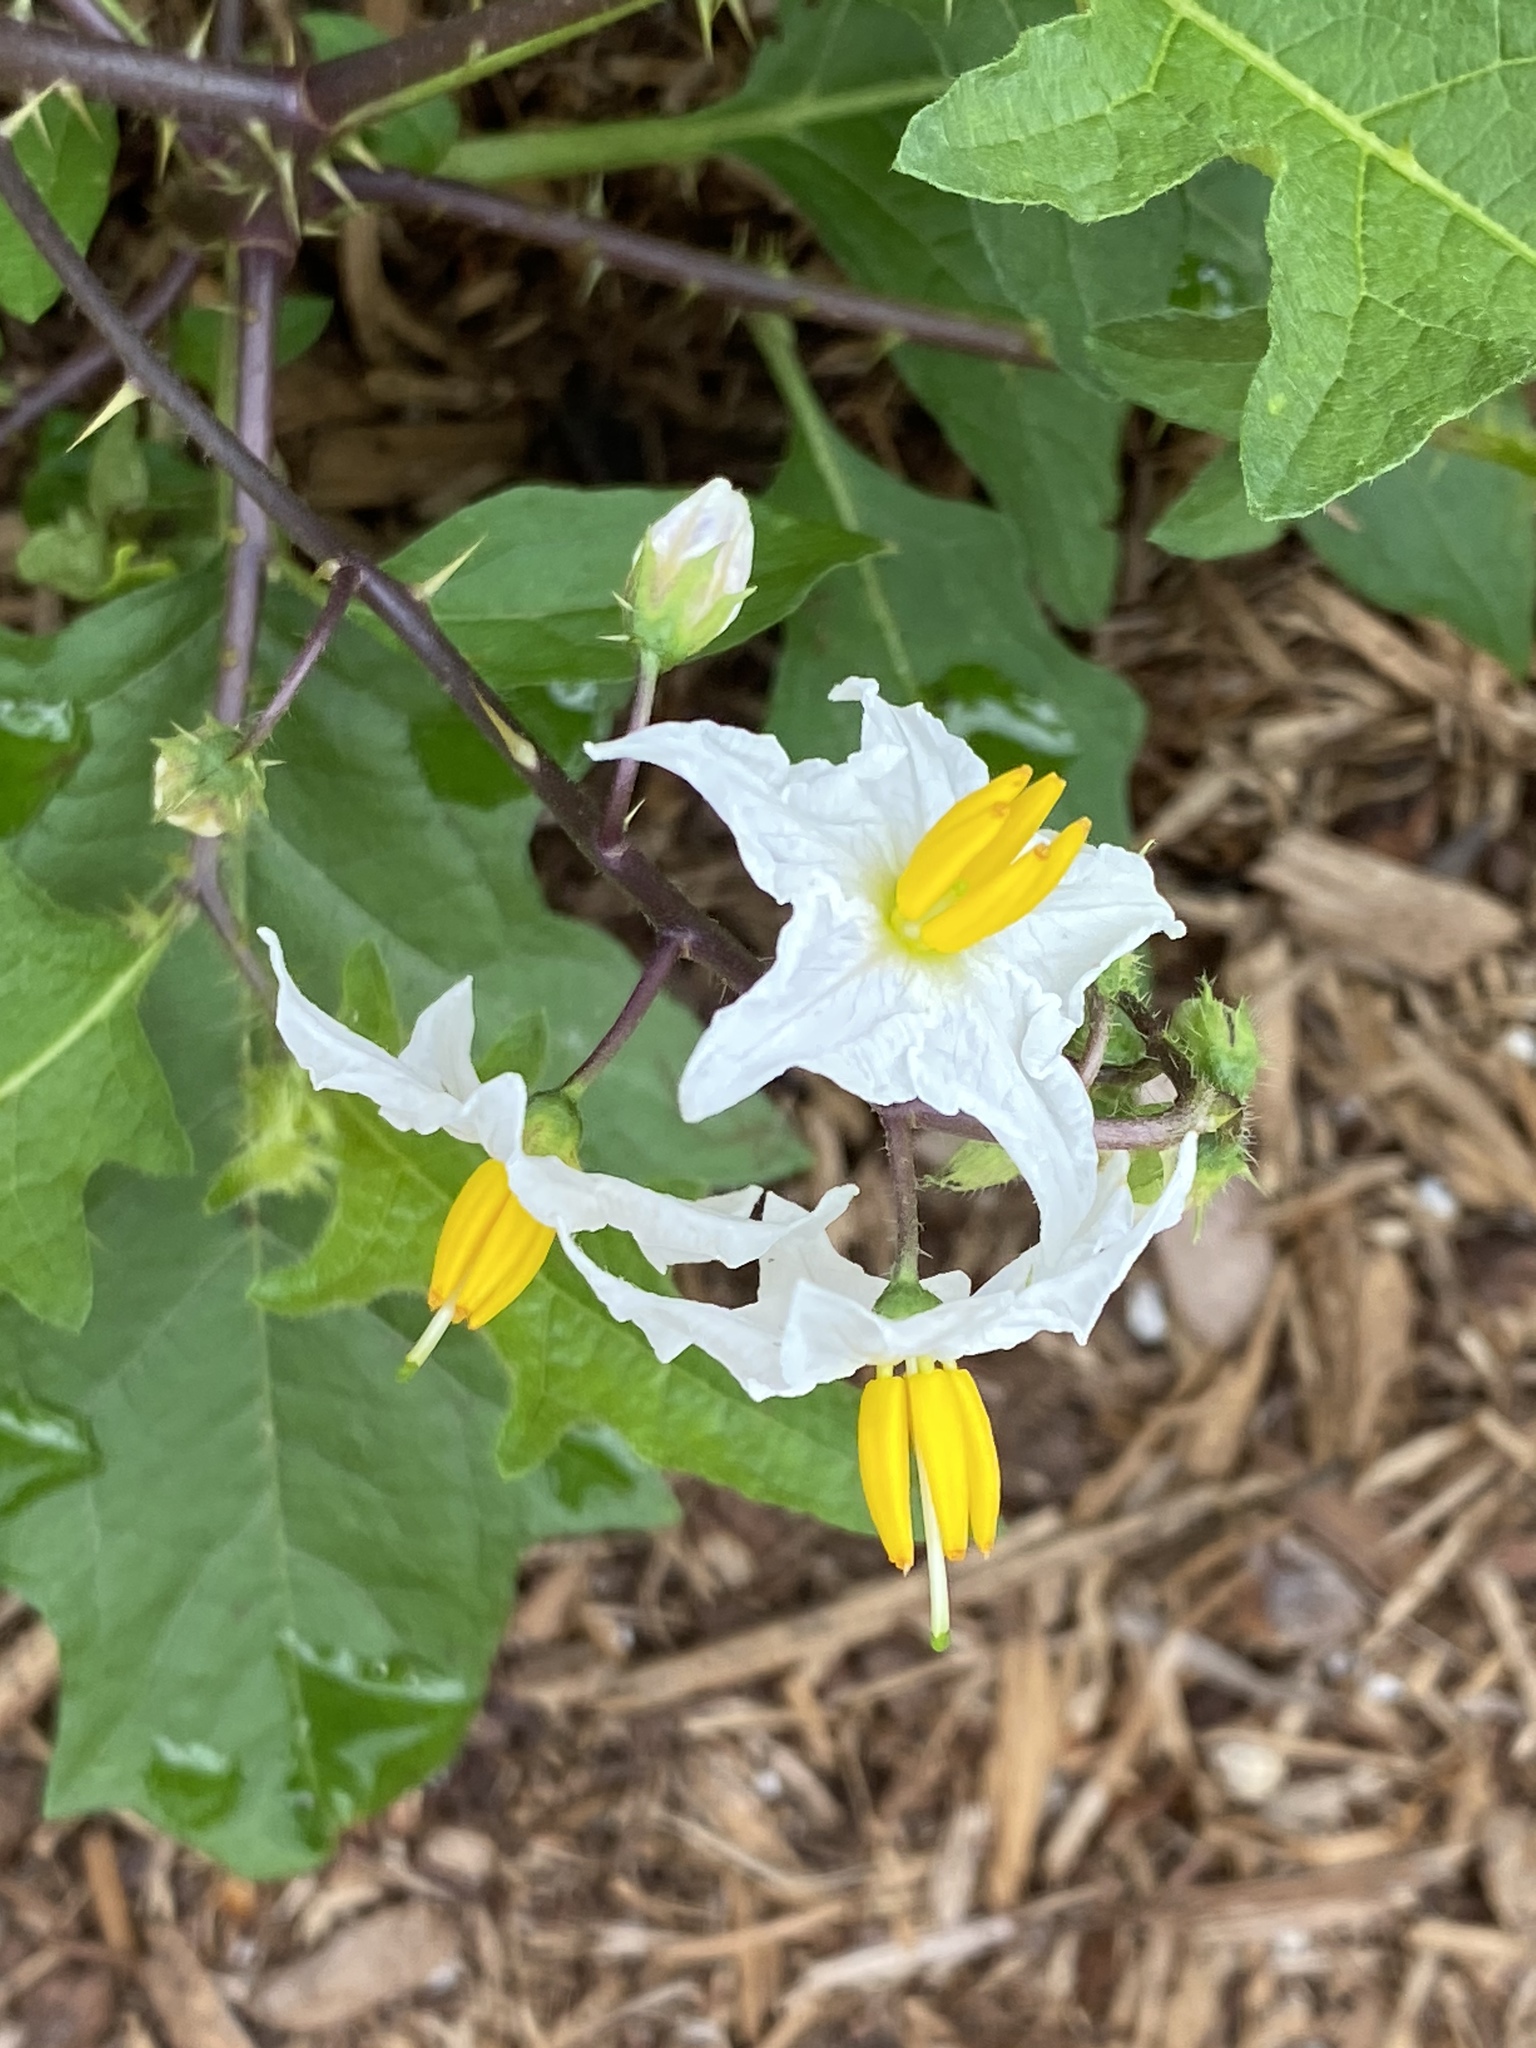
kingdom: Plantae
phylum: Tracheophyta
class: Magnoliopsida
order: Solanales
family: Solanaceae
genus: Solanum
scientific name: Solanum carolinense
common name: Horse-nettle
